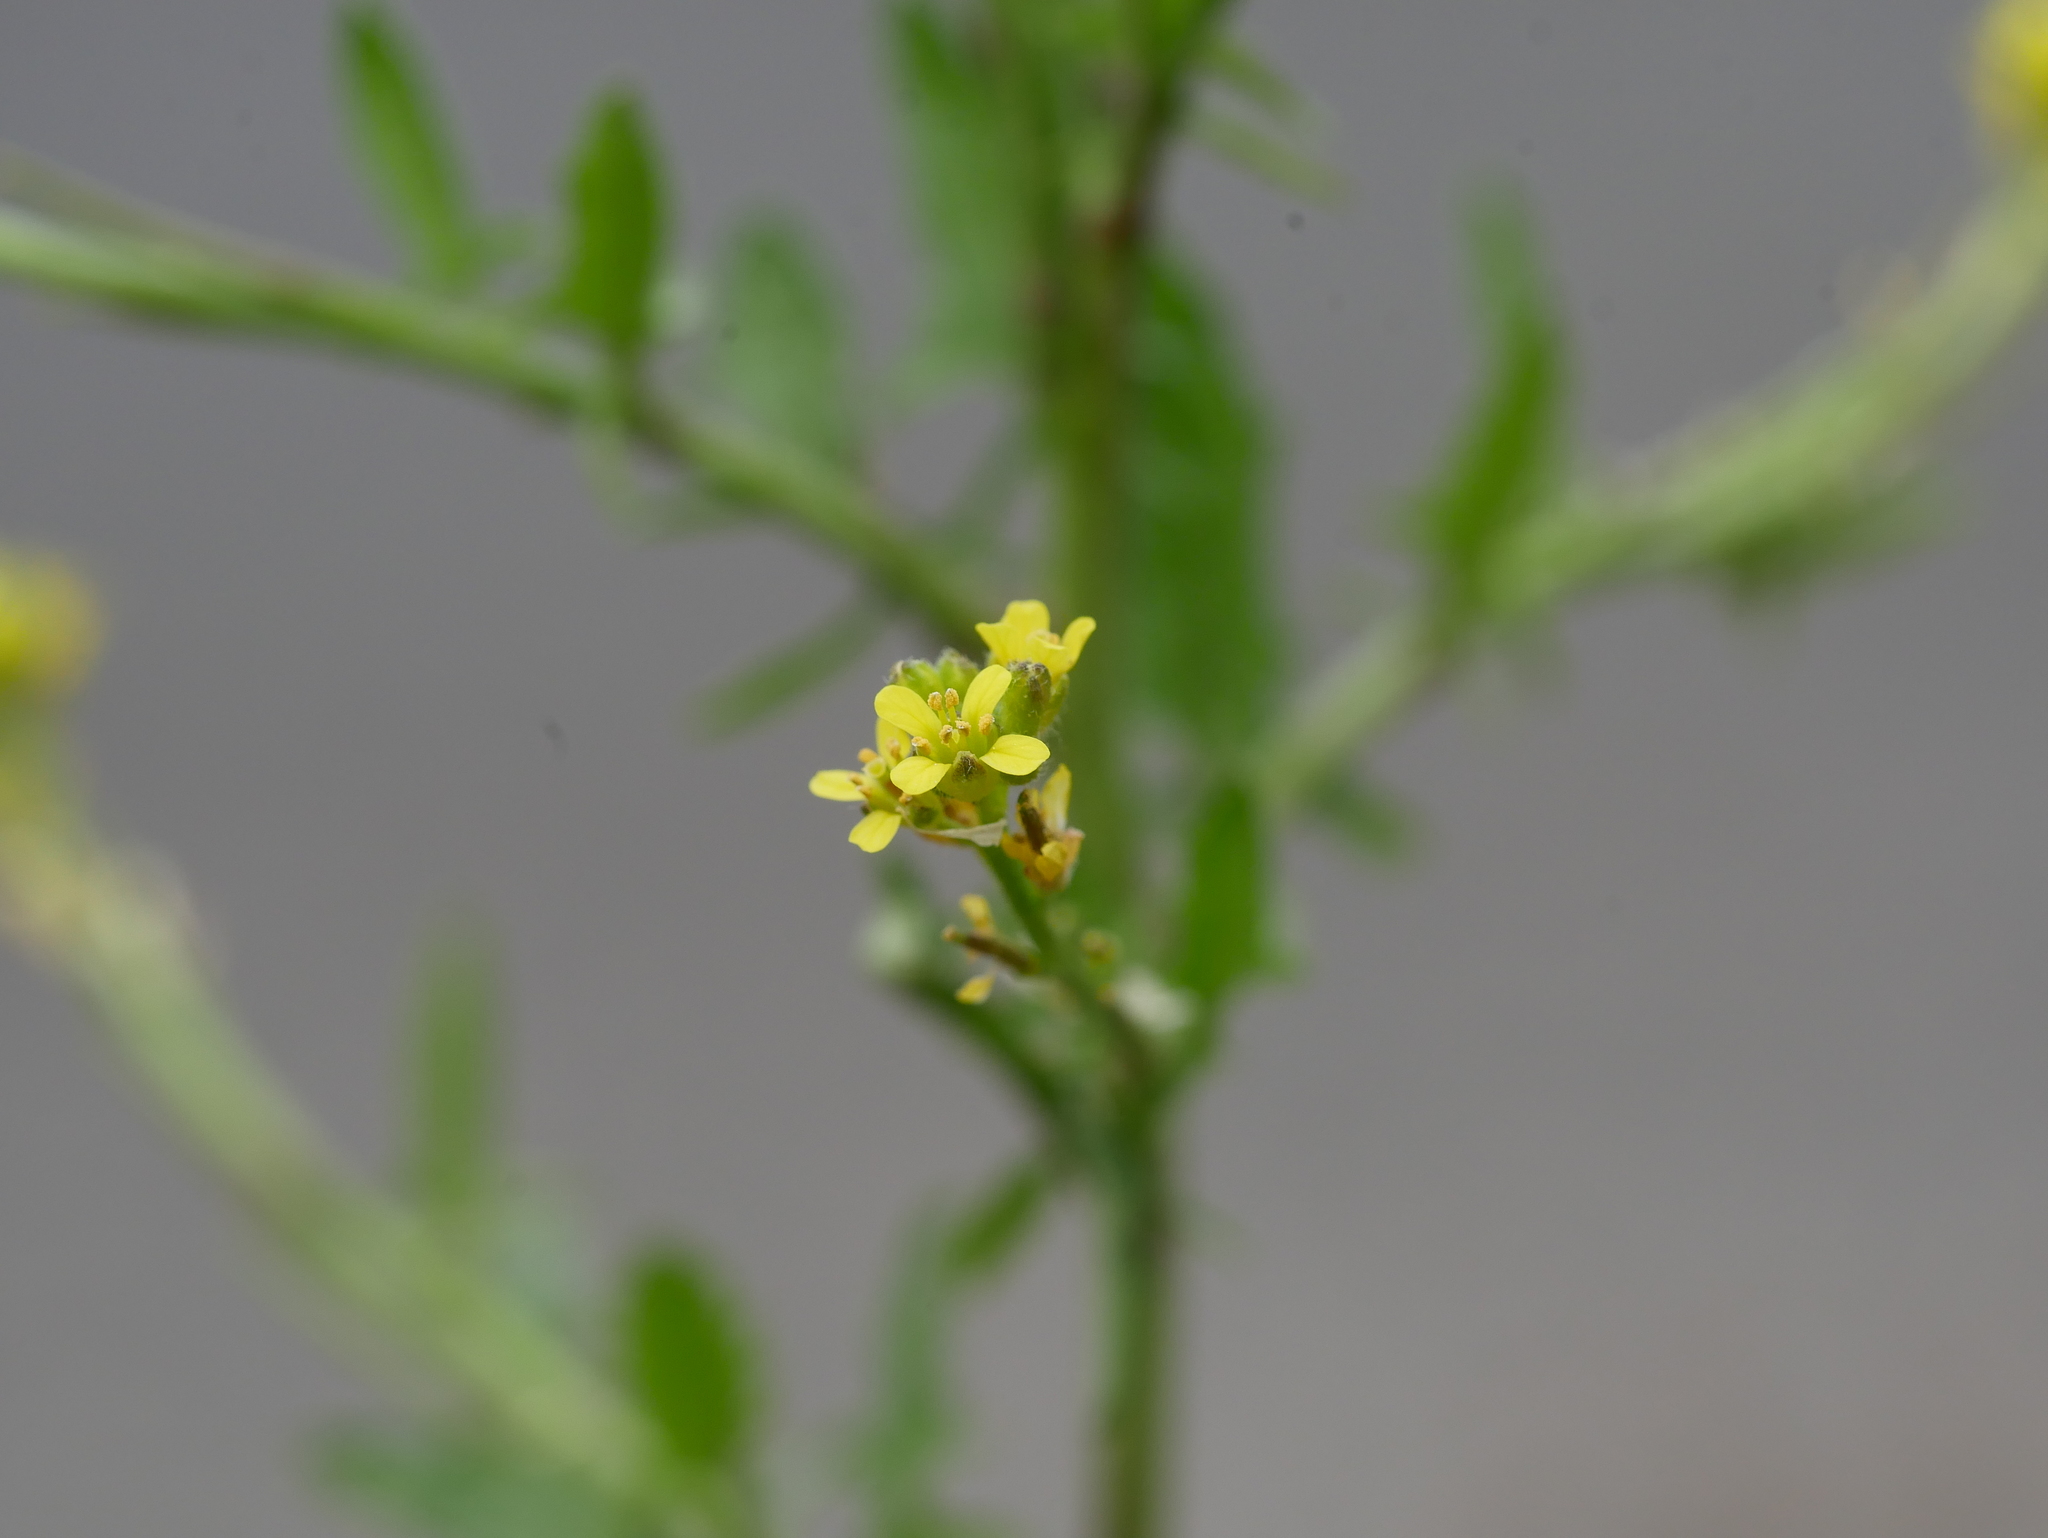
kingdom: Plantae
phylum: Tracheophyta
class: Magnoliopsida
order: Brassicales
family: Brassicaceae
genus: Sisymbrium
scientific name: Sisymbrium officinale
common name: Hedge mustard
